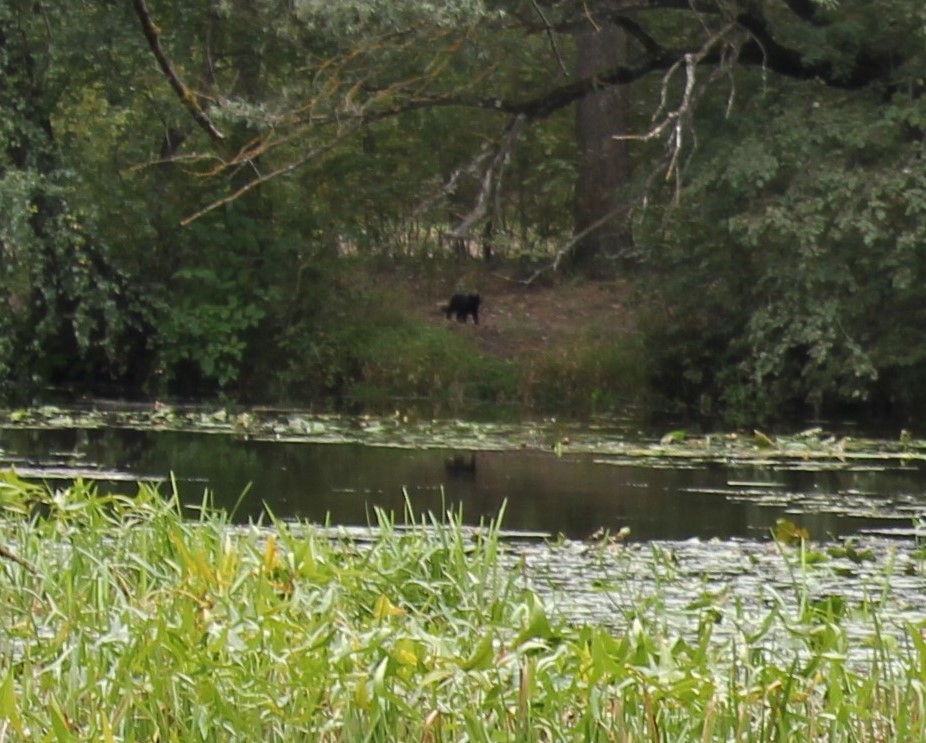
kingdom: Animalia
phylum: Chordata
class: Mammalia
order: Carnivora
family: Felidae
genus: Felis
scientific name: Felis catus
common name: Domestic cat
